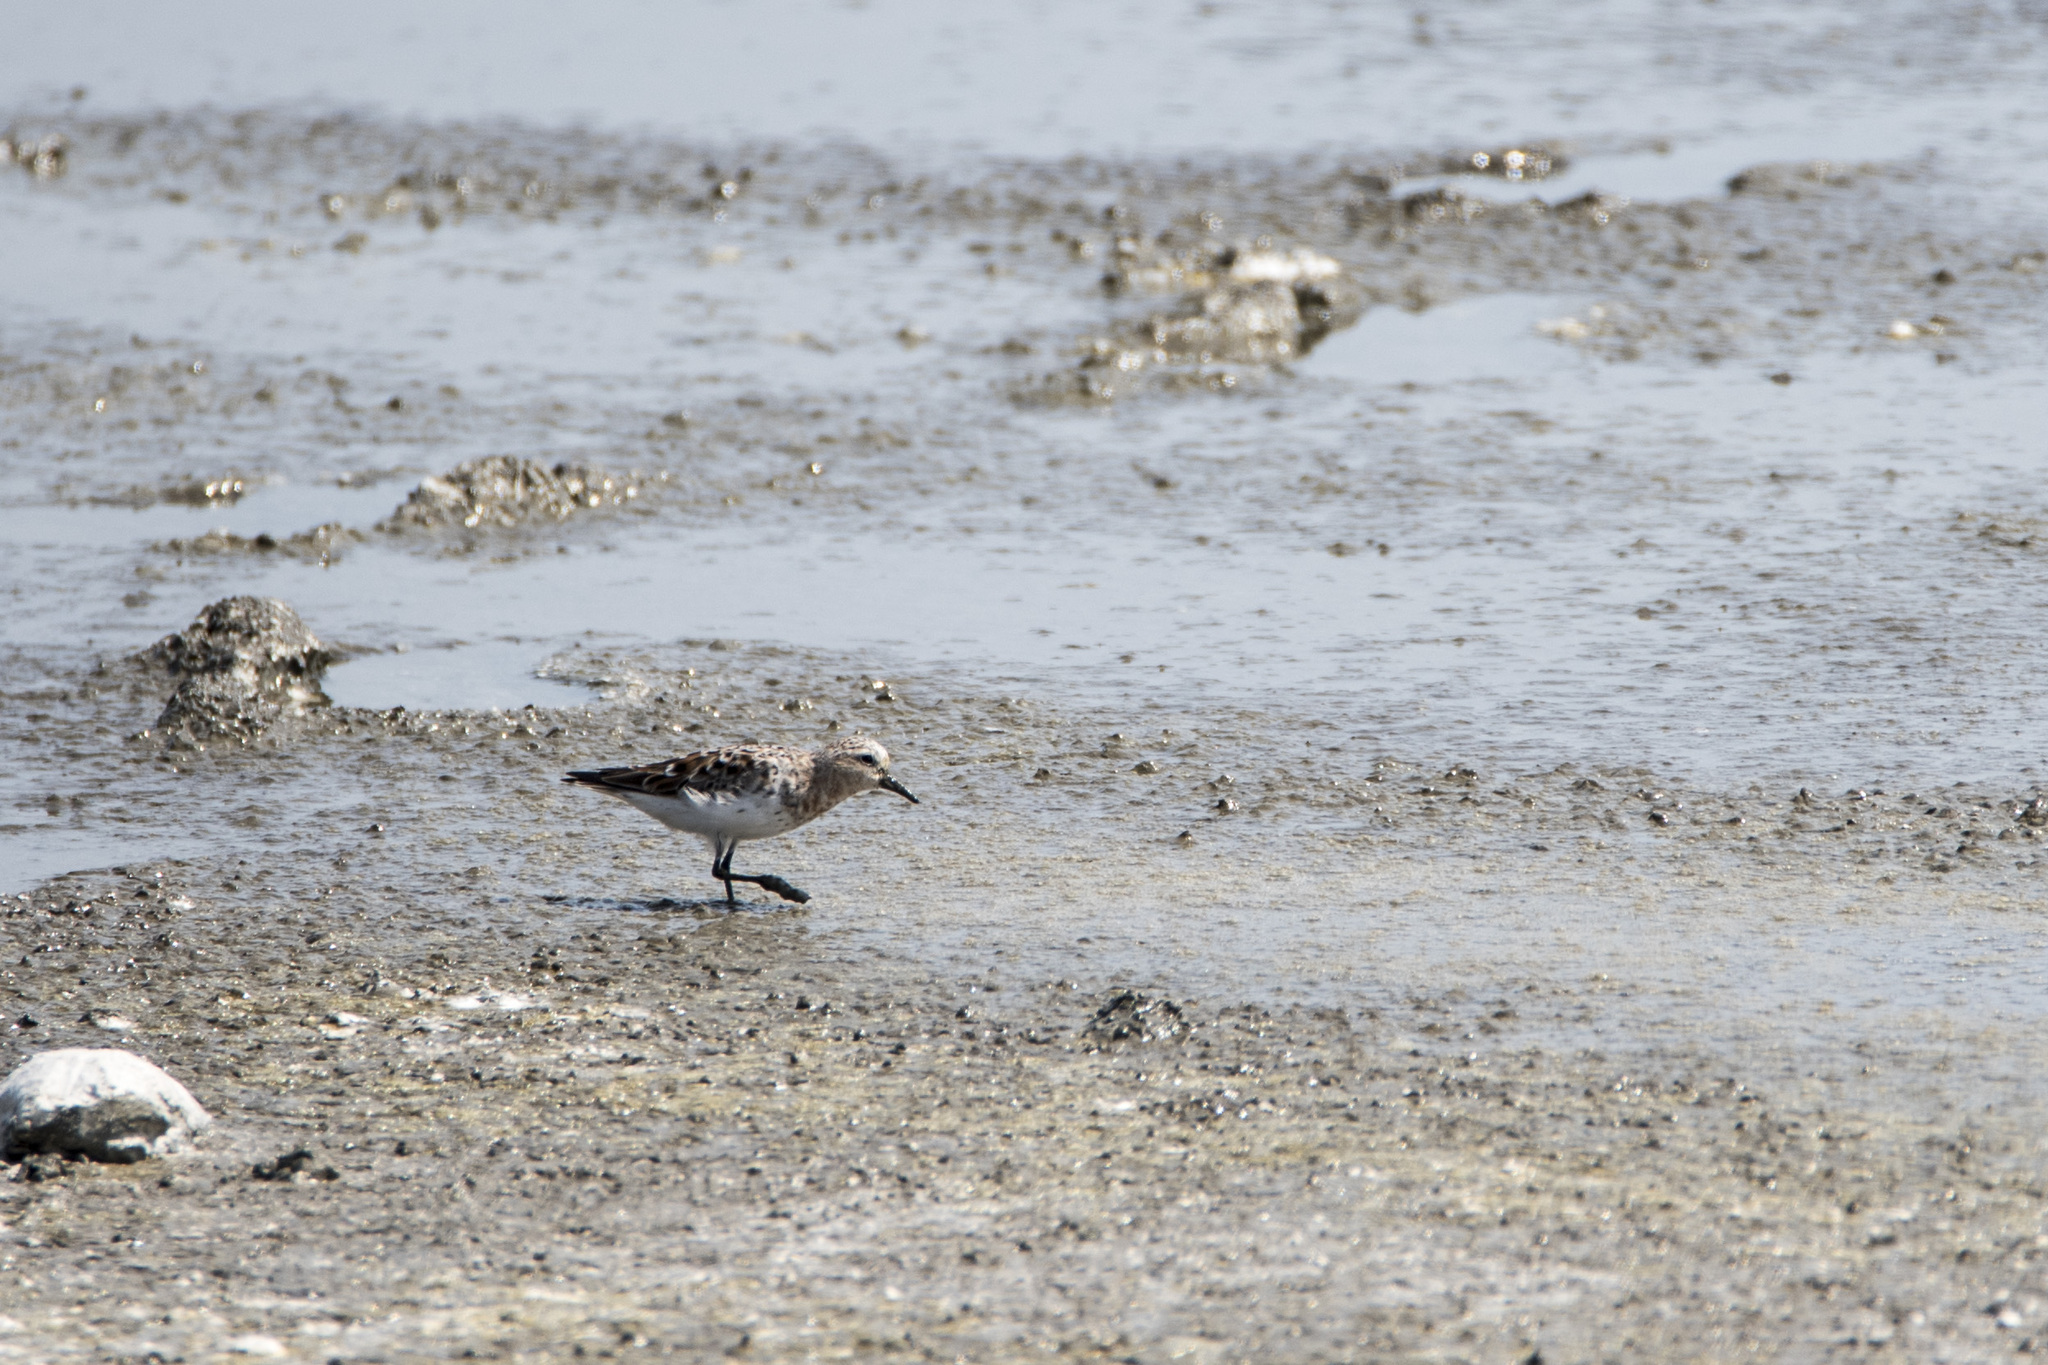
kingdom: Animalia
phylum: Chordata
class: Aves
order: Charadriiformes
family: Scolopacidae
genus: Calidris
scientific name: Calidris ruficollis
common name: Red-necked stint
